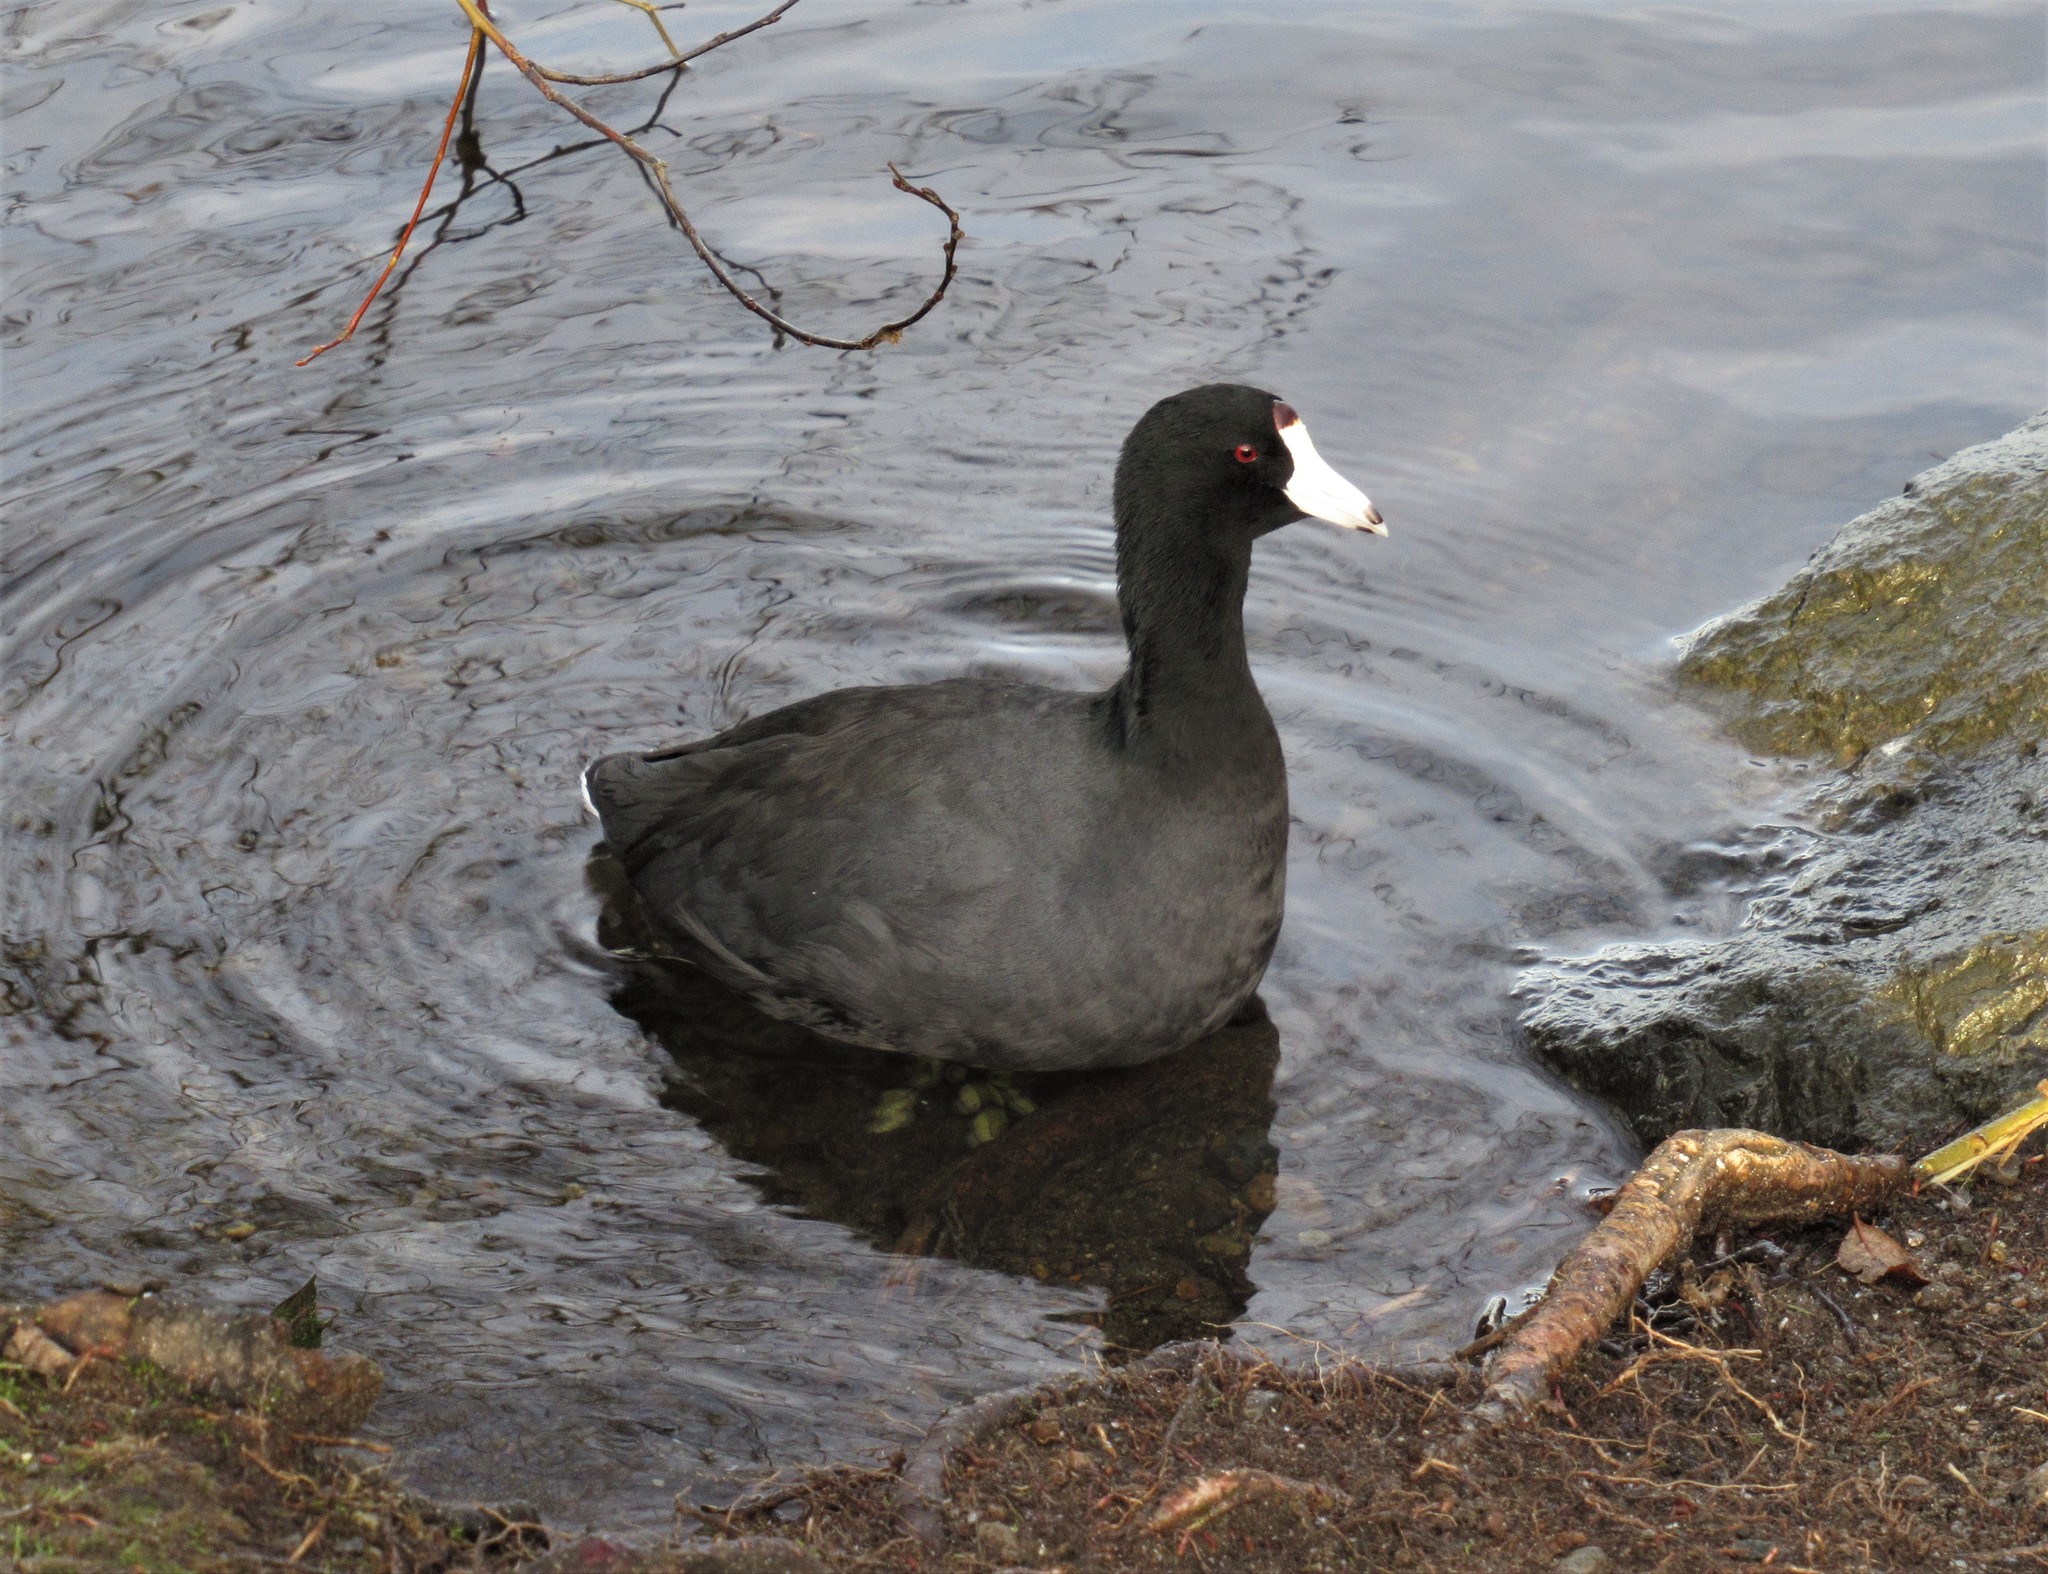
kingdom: Animalia
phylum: Chordata
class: Aves
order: Gruiformes
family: Rallidae
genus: Fulica
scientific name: Fulica americana
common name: American coot
